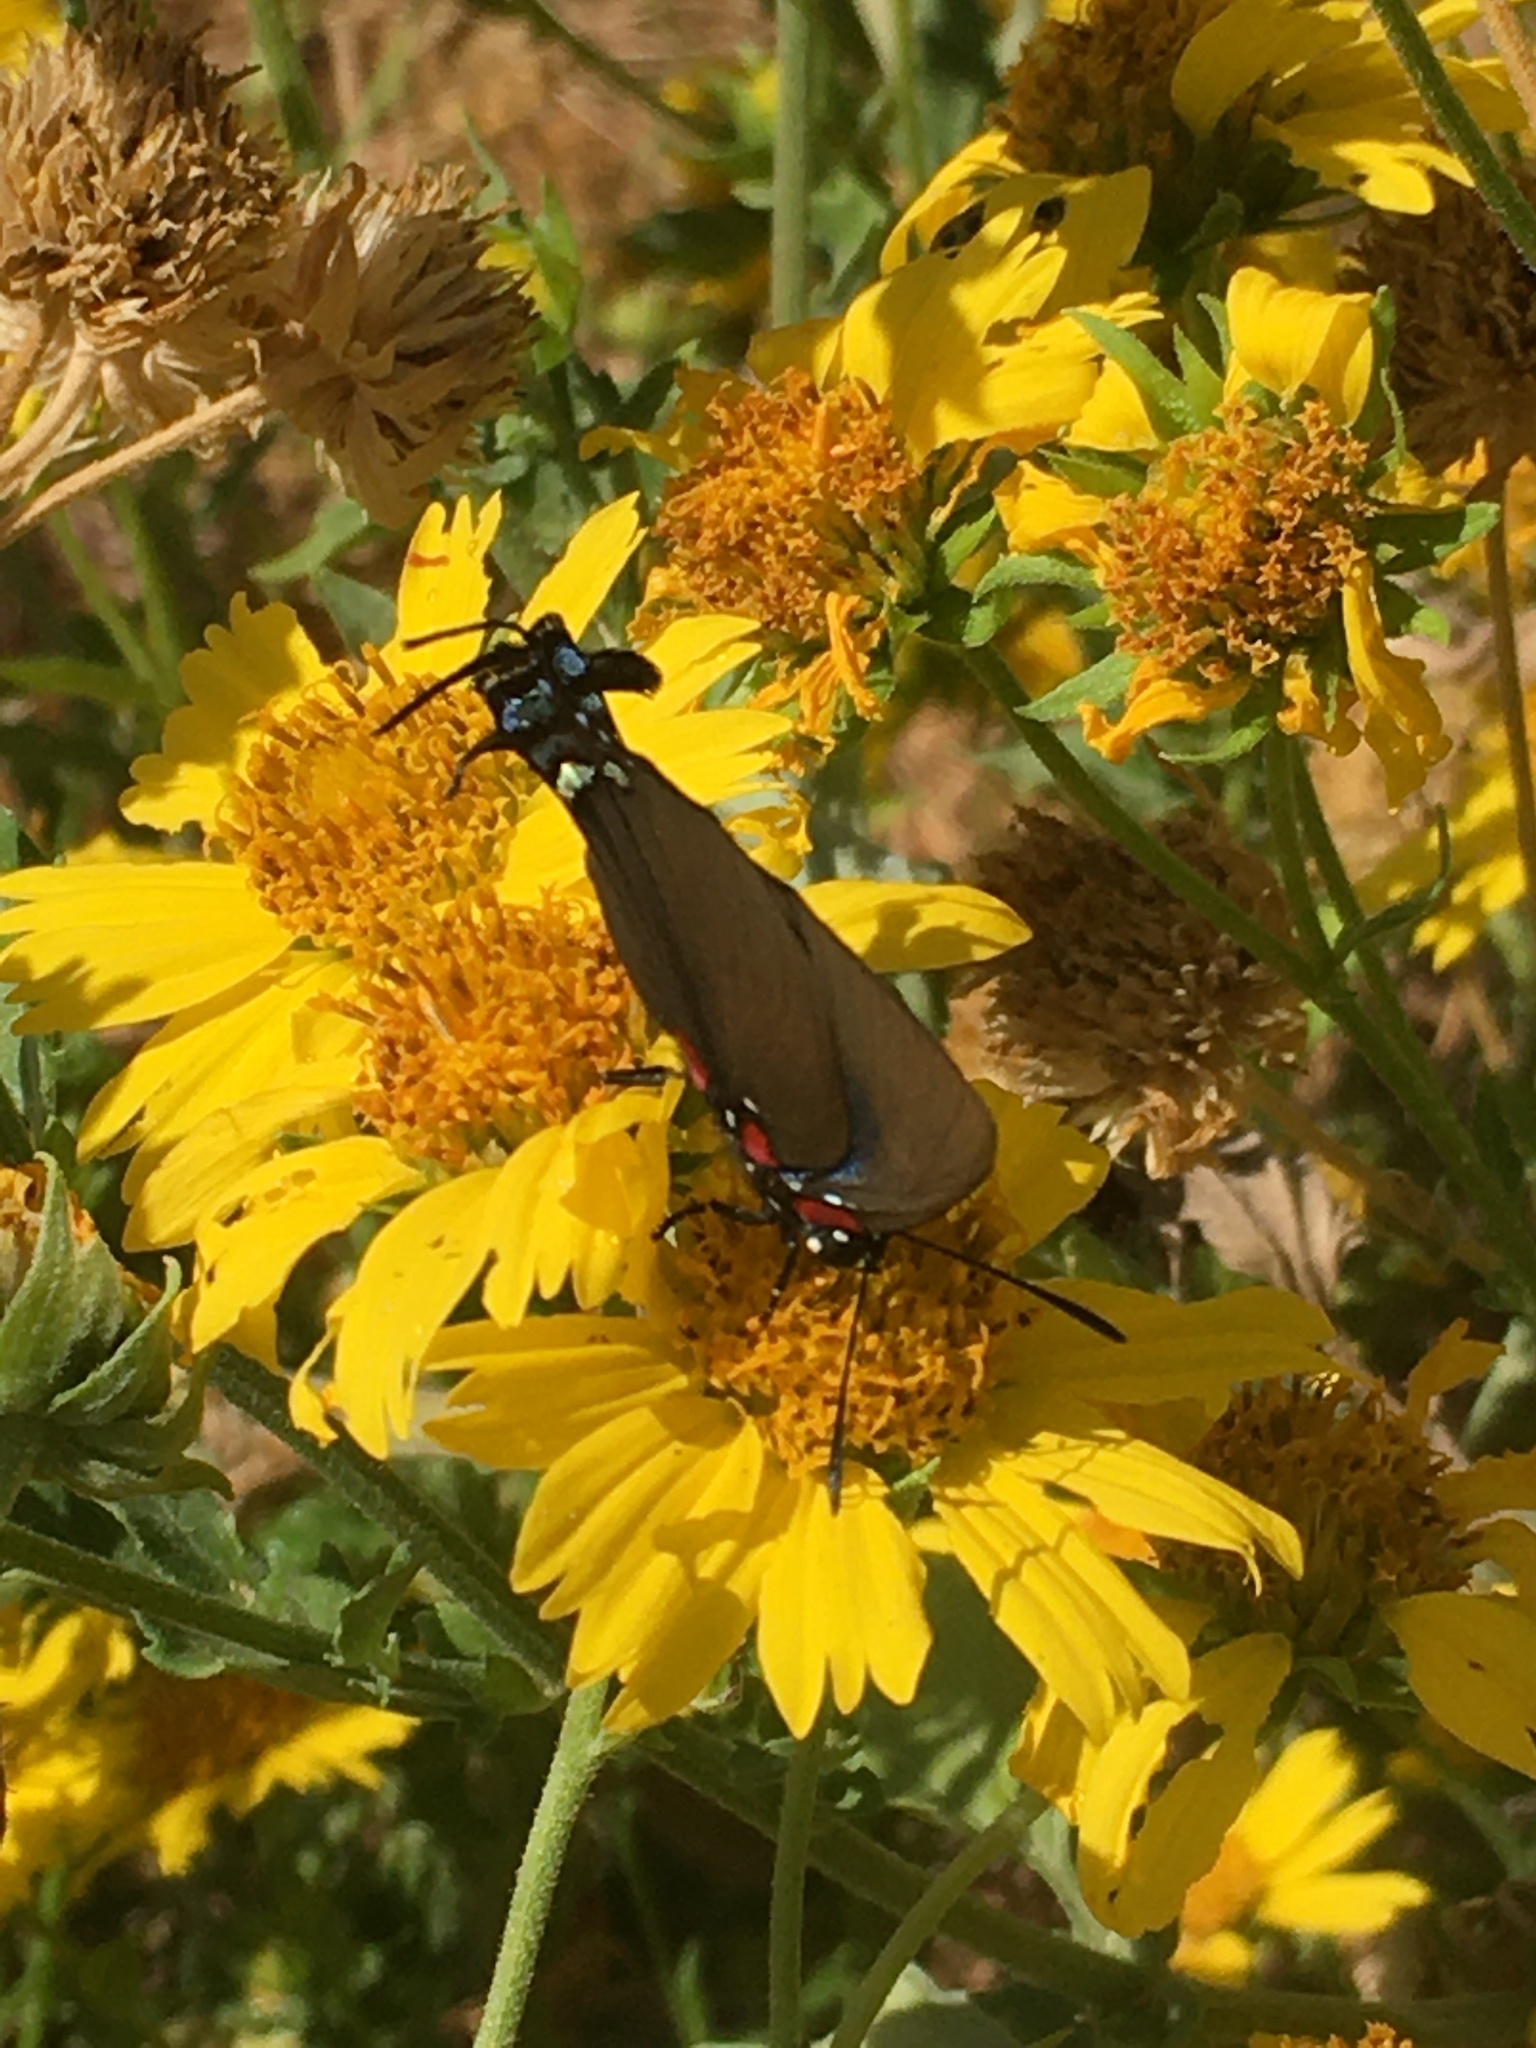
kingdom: Animalia
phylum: Arthropoda
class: Insecta
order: Lepidoptera
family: Lycaenidae
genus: Atlides
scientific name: Atlides halesus
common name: Great purple hairstreak
